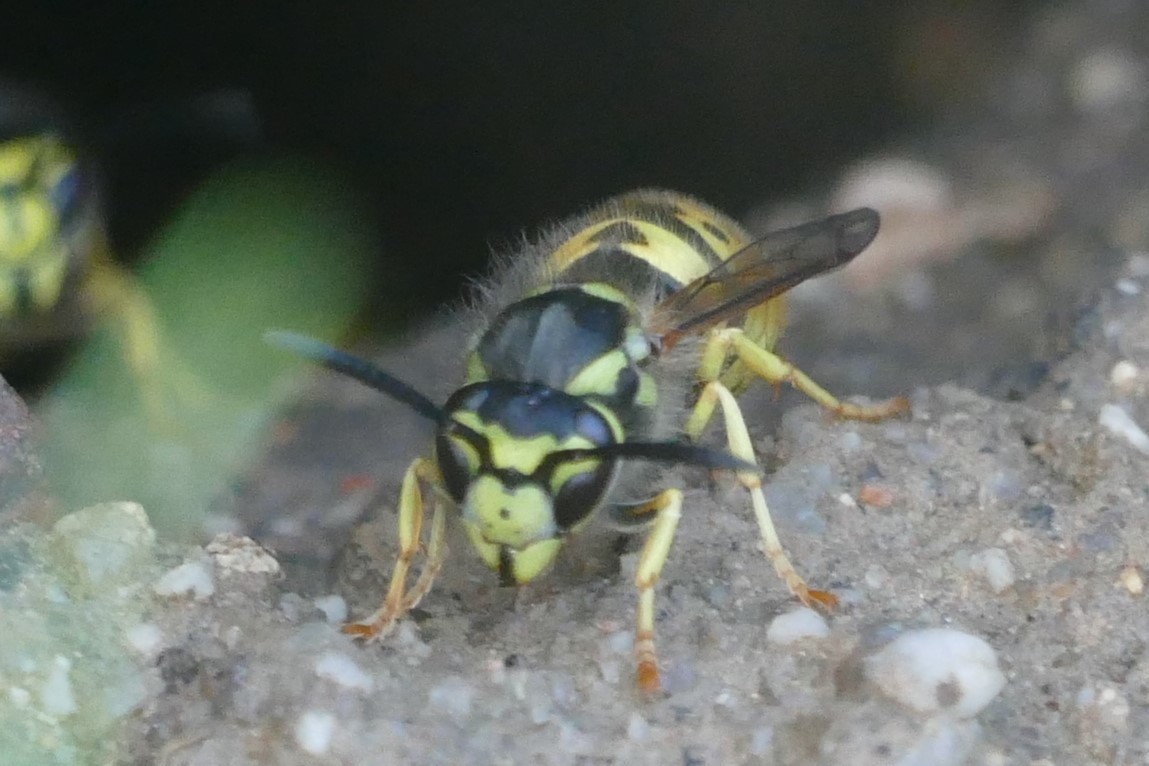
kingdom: Animalia
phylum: Arthropoda
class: Insecta
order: Hymenoptera
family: Vespidae
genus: Vespula
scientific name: Vespula germanica
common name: German wasp
